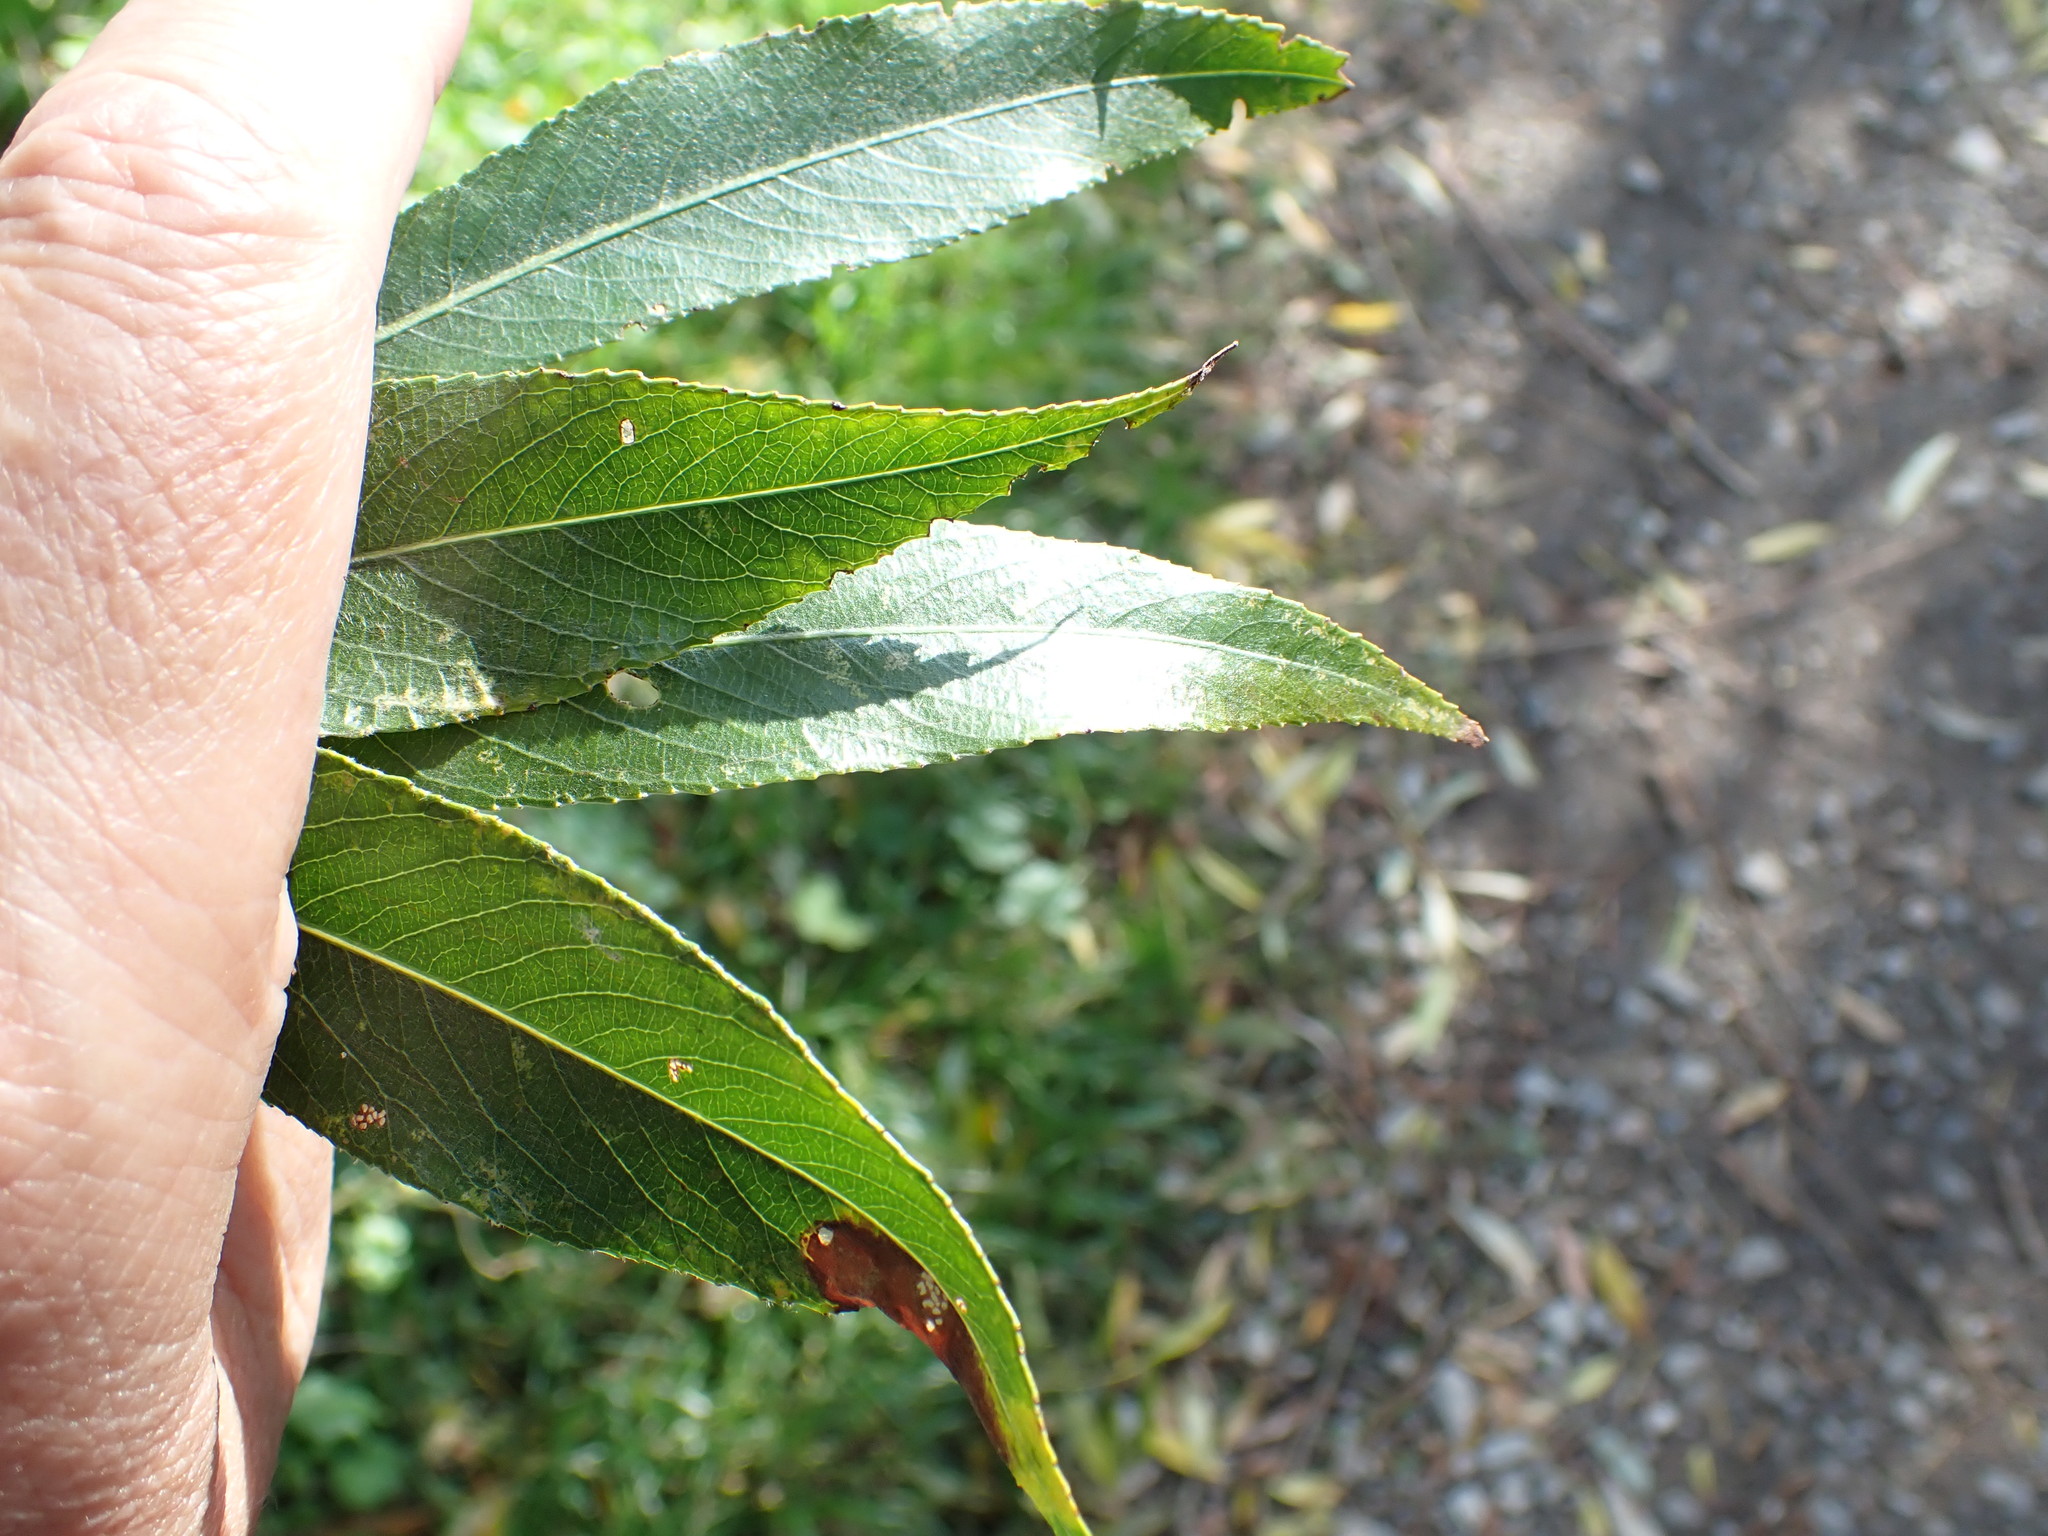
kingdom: Plantae
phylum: Tracheophyta
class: Magnoliopsida
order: Malpighiales
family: Salicaceae
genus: Salix
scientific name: Salix alba
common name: White willow
